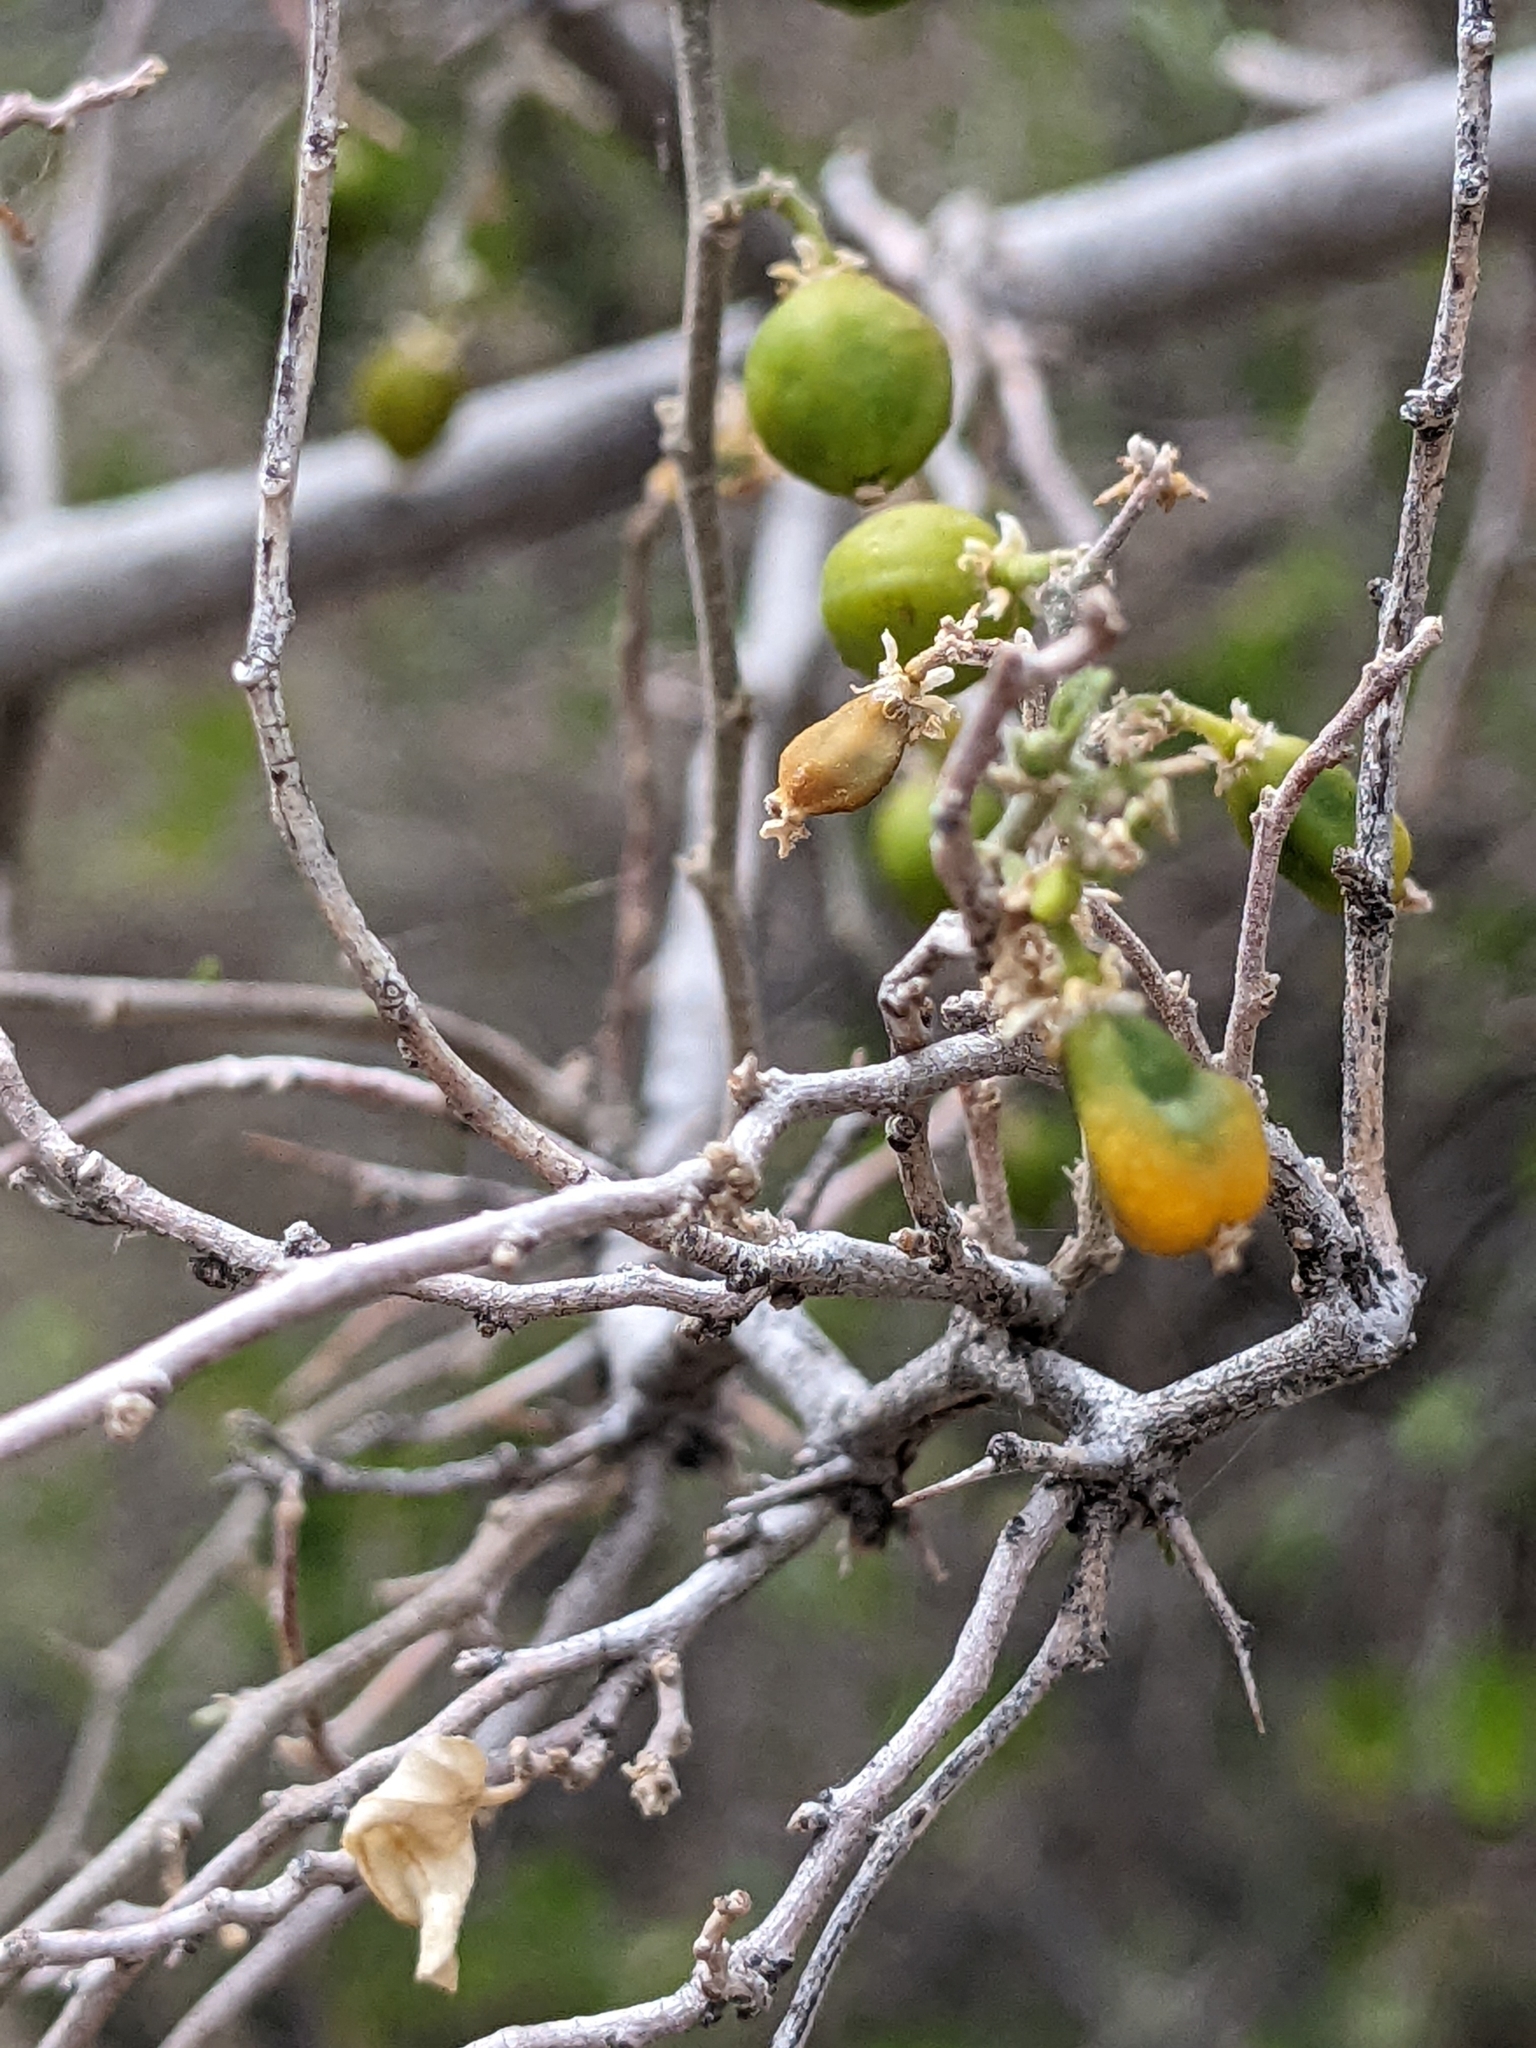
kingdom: Plantae
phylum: Tracheophyta
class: Magnoliopsida
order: Rosales
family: Cannabaceae
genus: Celtis
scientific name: Celtis pallida
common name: Desert hackberry
